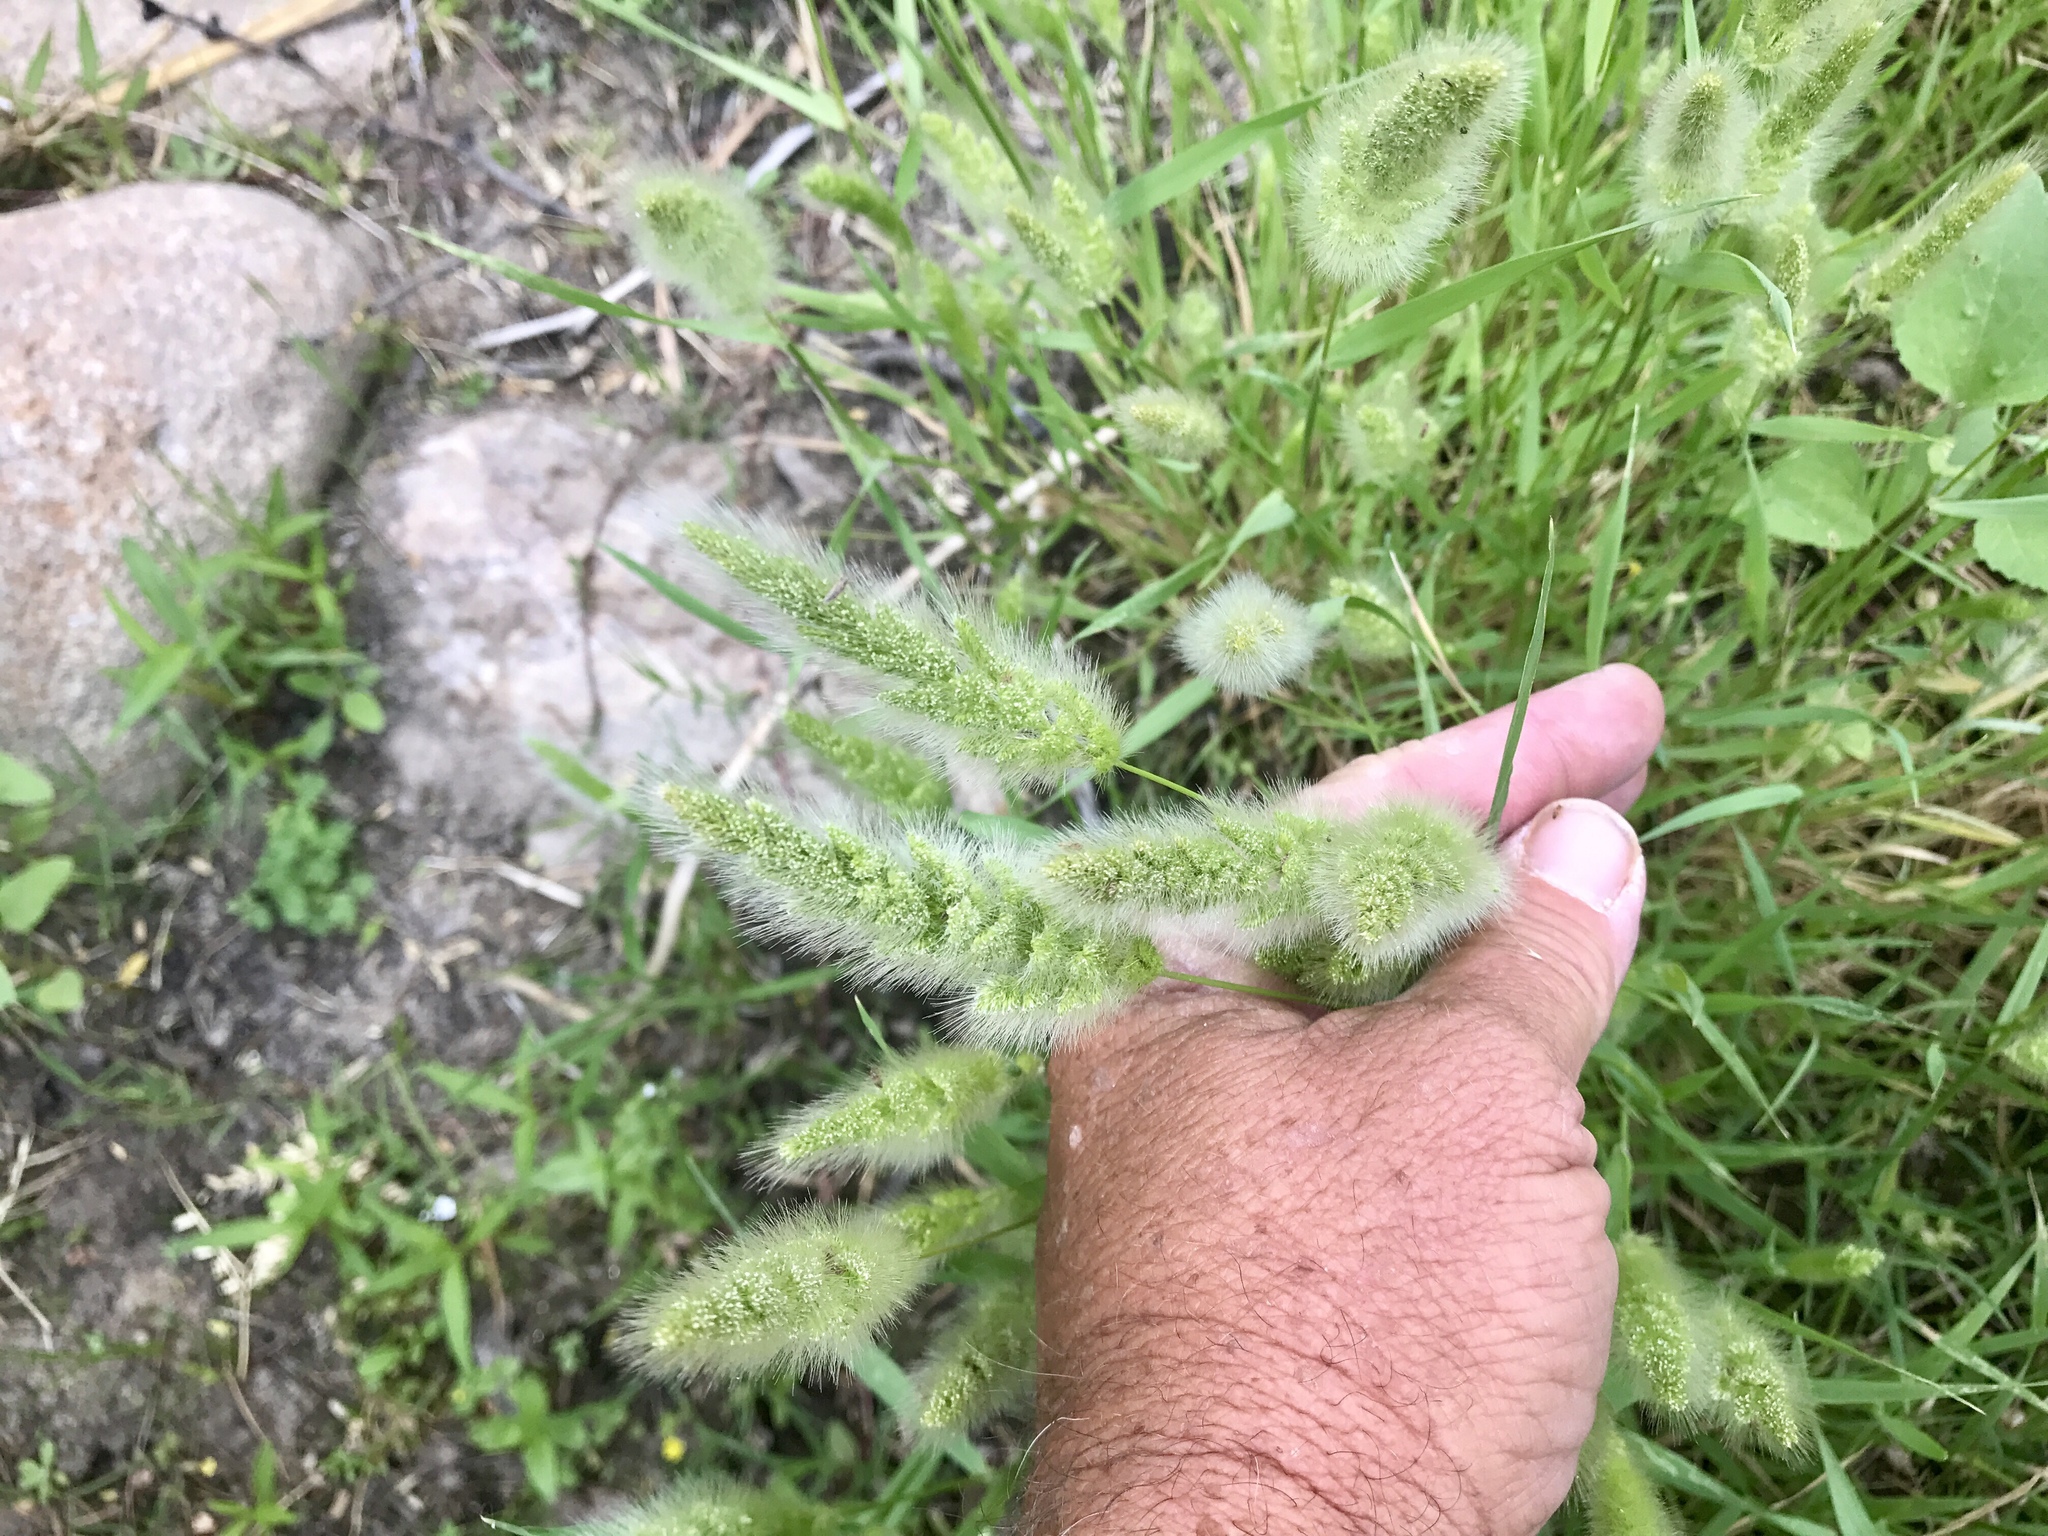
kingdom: Plantae
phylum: Tracheophyta
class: Liliopsida
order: Poales
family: Poaceae
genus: Polypogon
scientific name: Polypogon monspeliensis
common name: Annual rabbitsfoot grass
